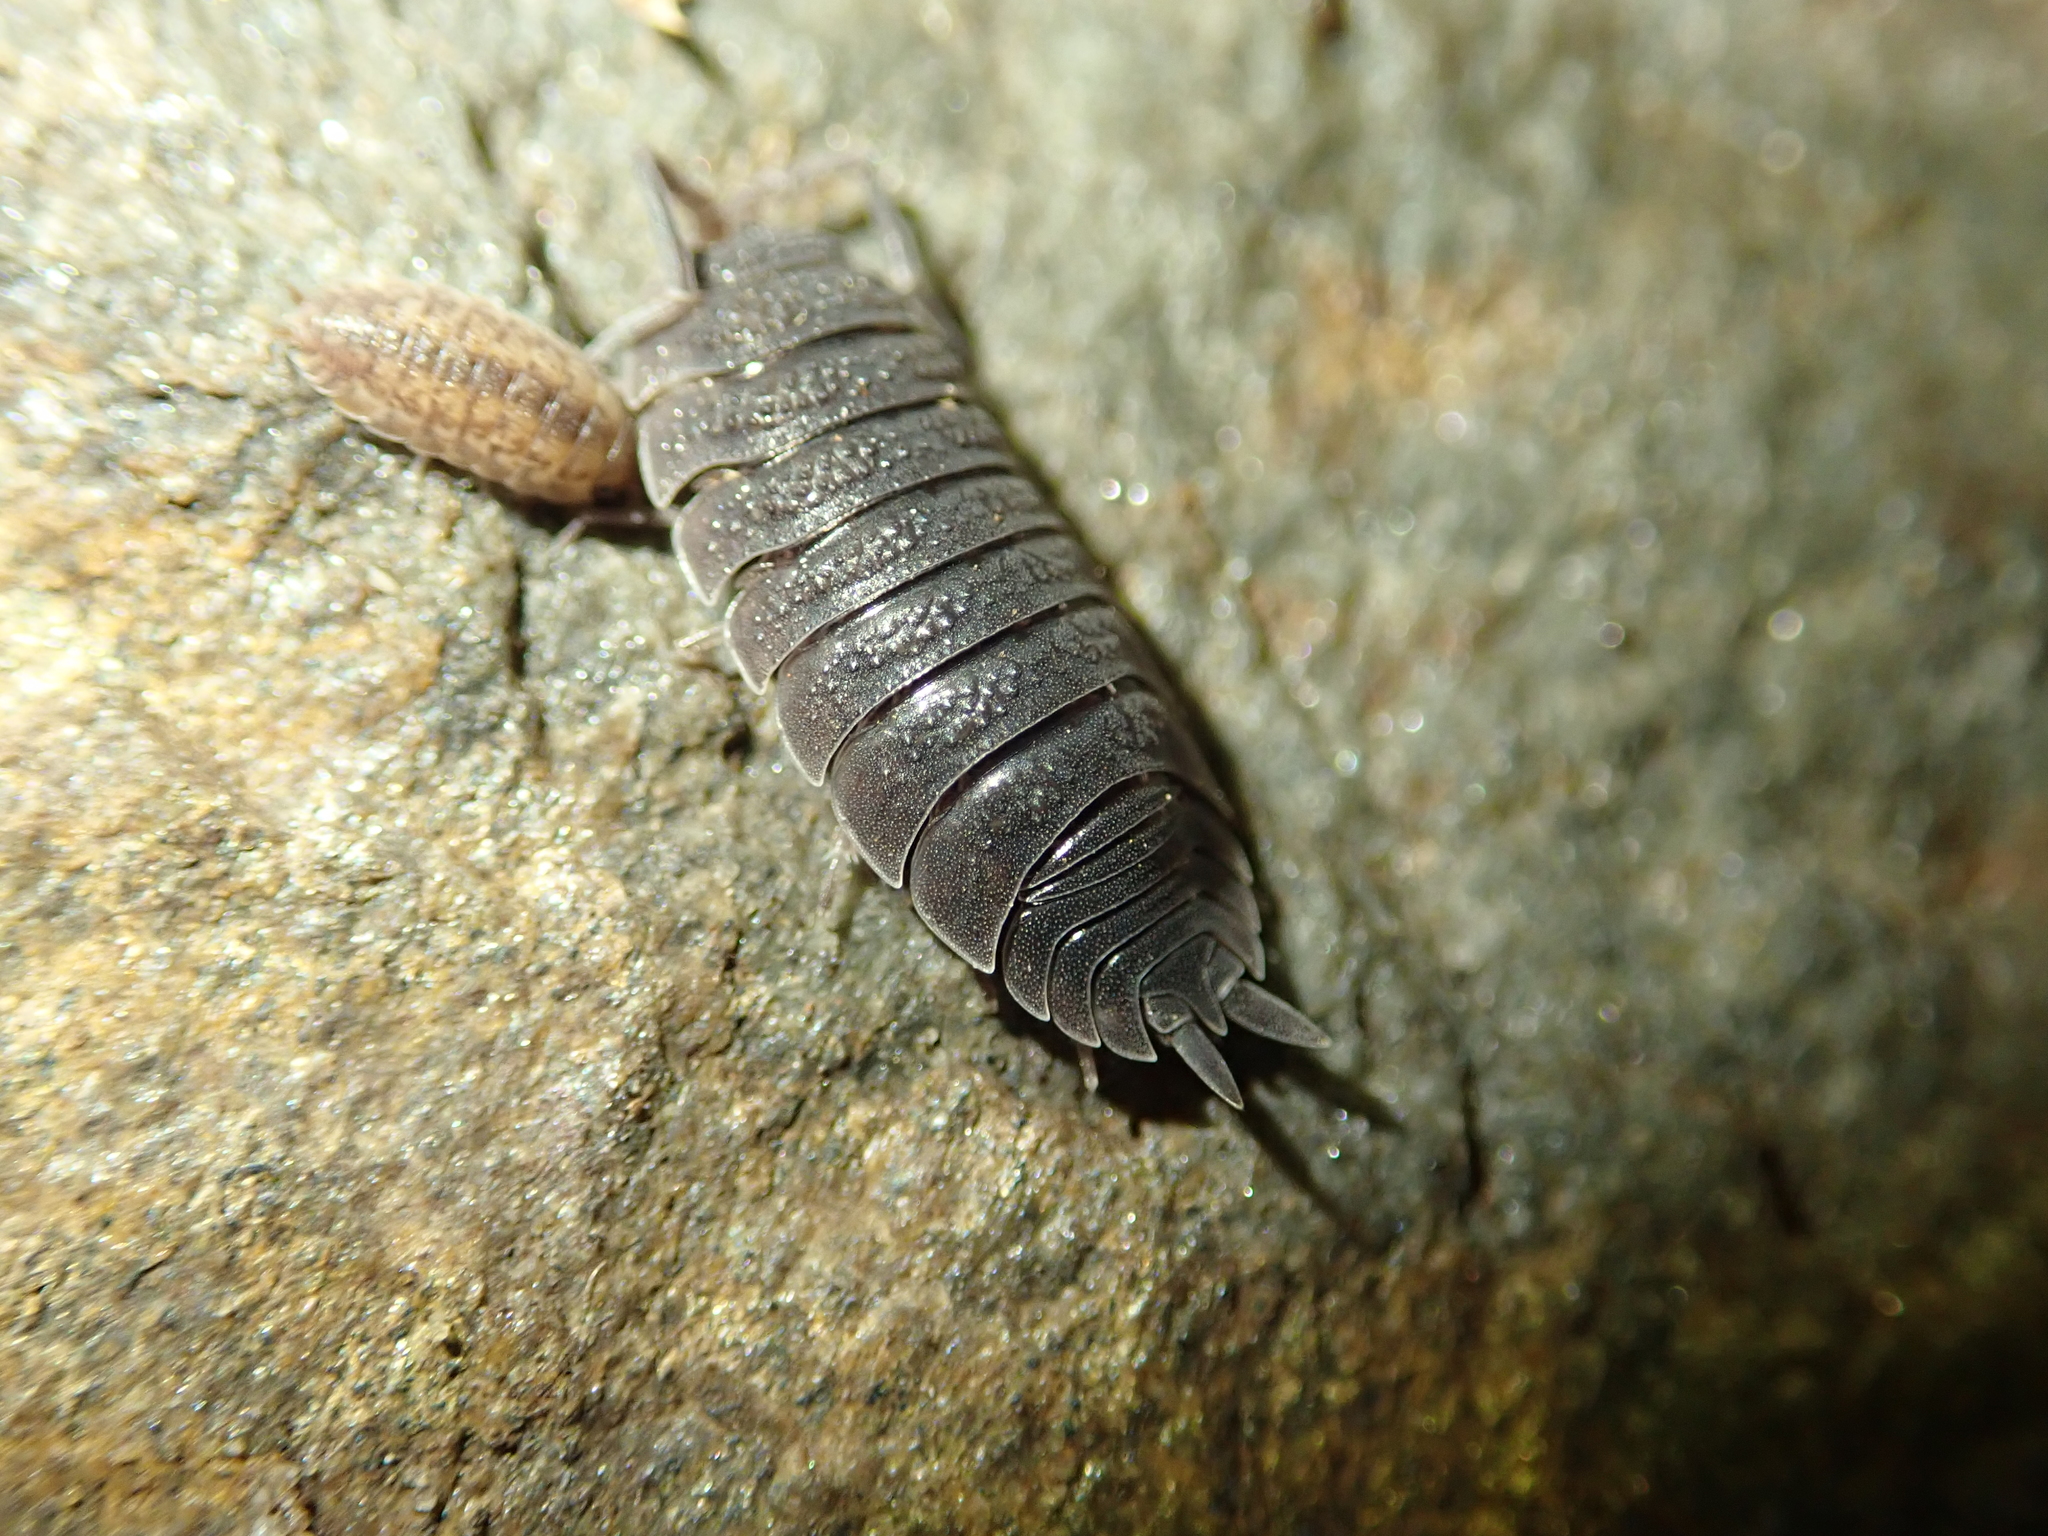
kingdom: Animalia
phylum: Arthropoda
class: Malacostraca
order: Isopoda
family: Porcellionidae
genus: Porcellio
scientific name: Porcellio scaber
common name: Common rough woodlouse
